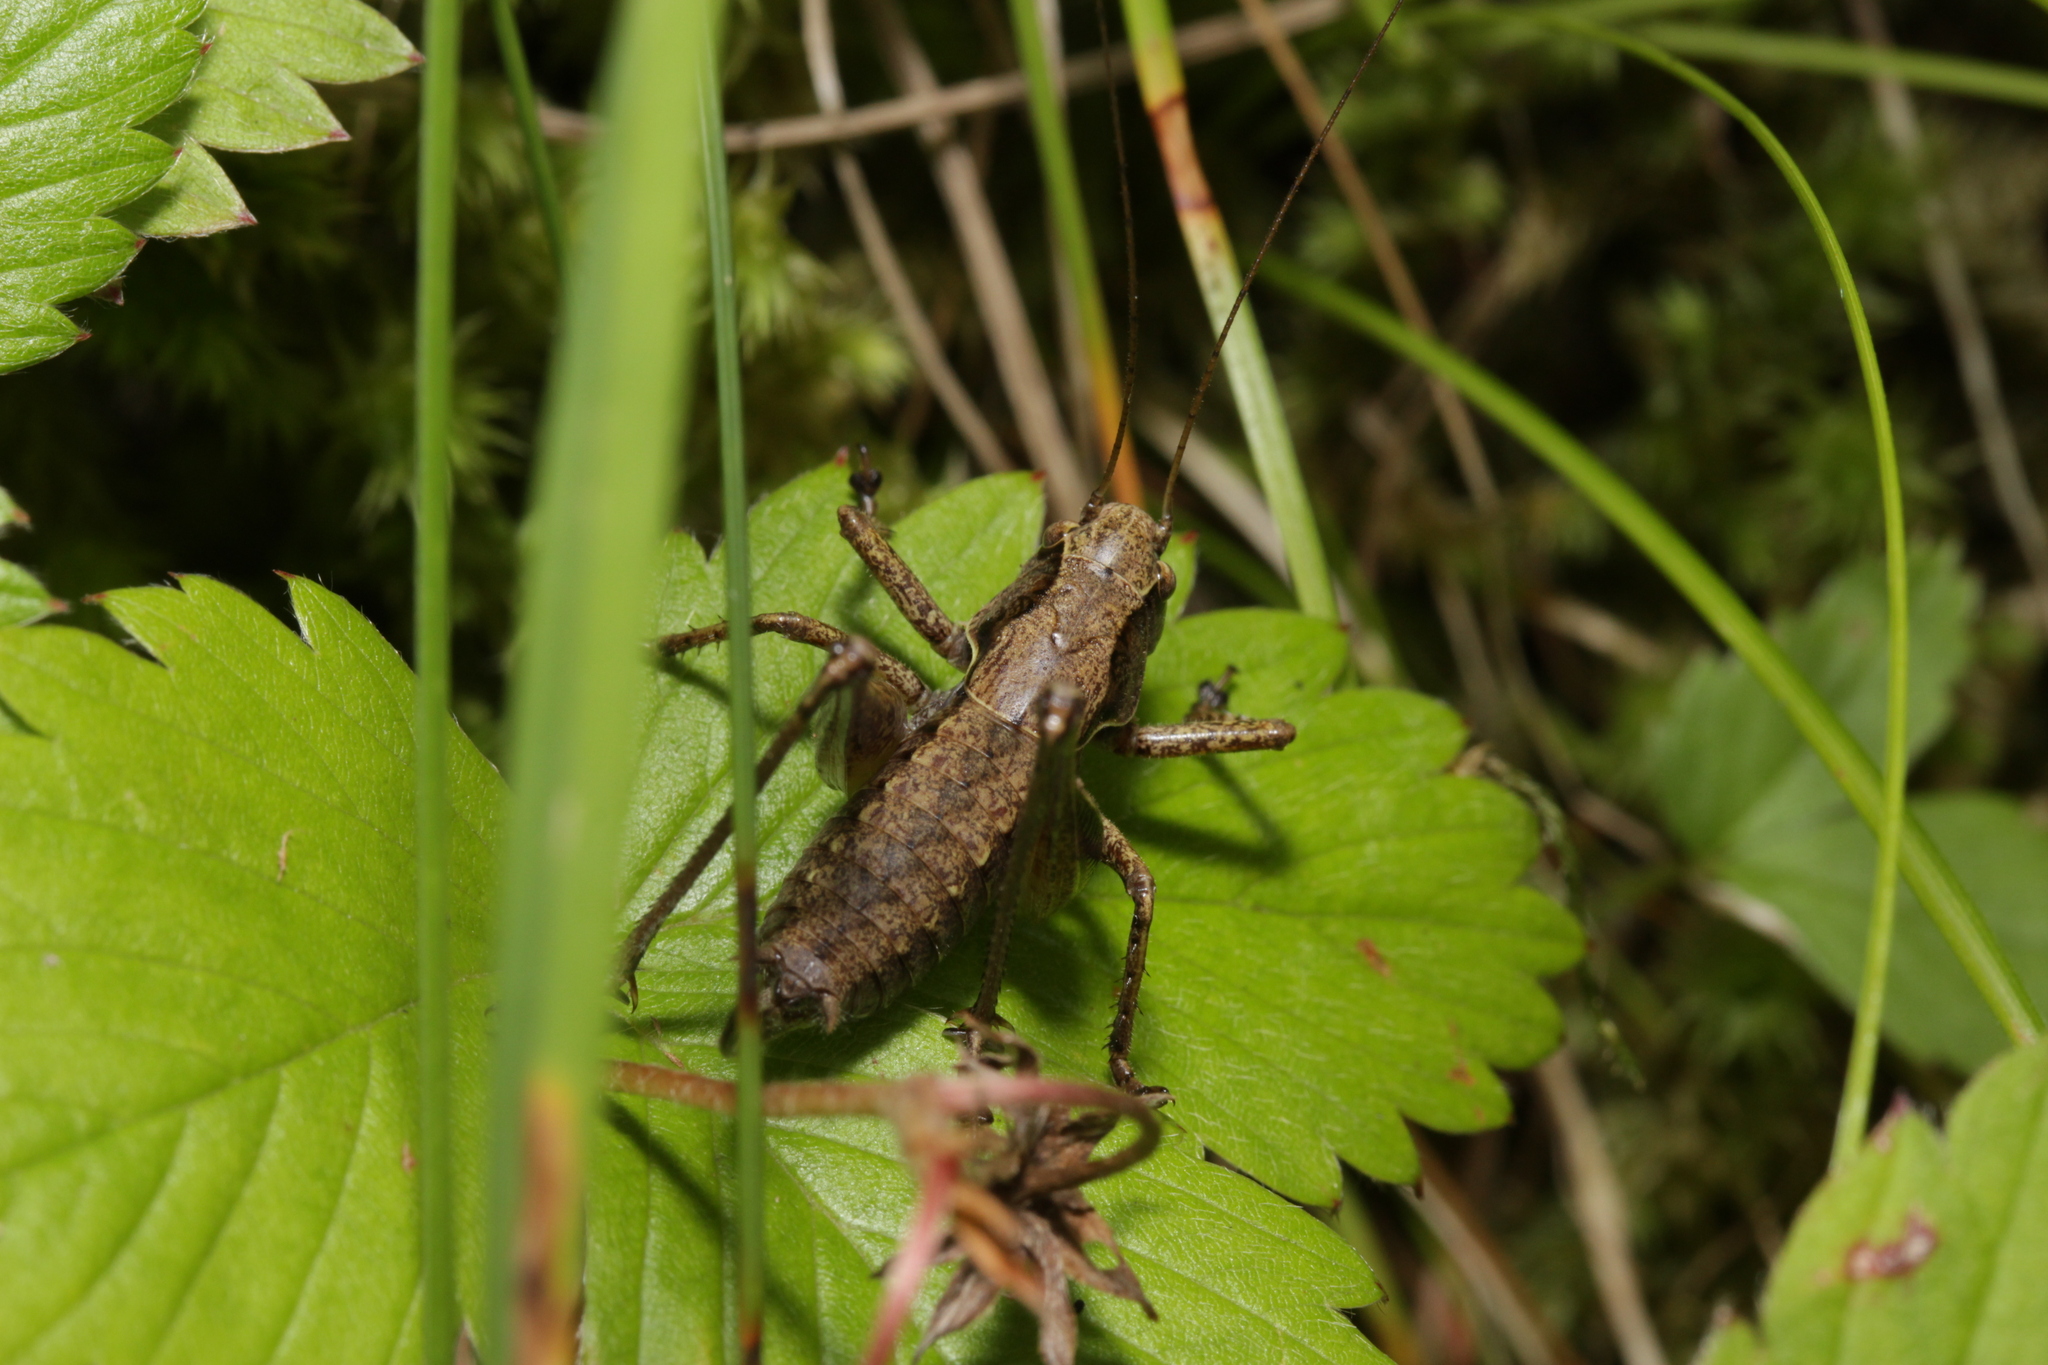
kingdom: Animalia
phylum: Arthropoda
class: Insecta
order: Orthoptera
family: Tettigoniidae
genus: Pholidoptera
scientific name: Pholidoptera griseoaptera
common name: Dark bush-cricket
